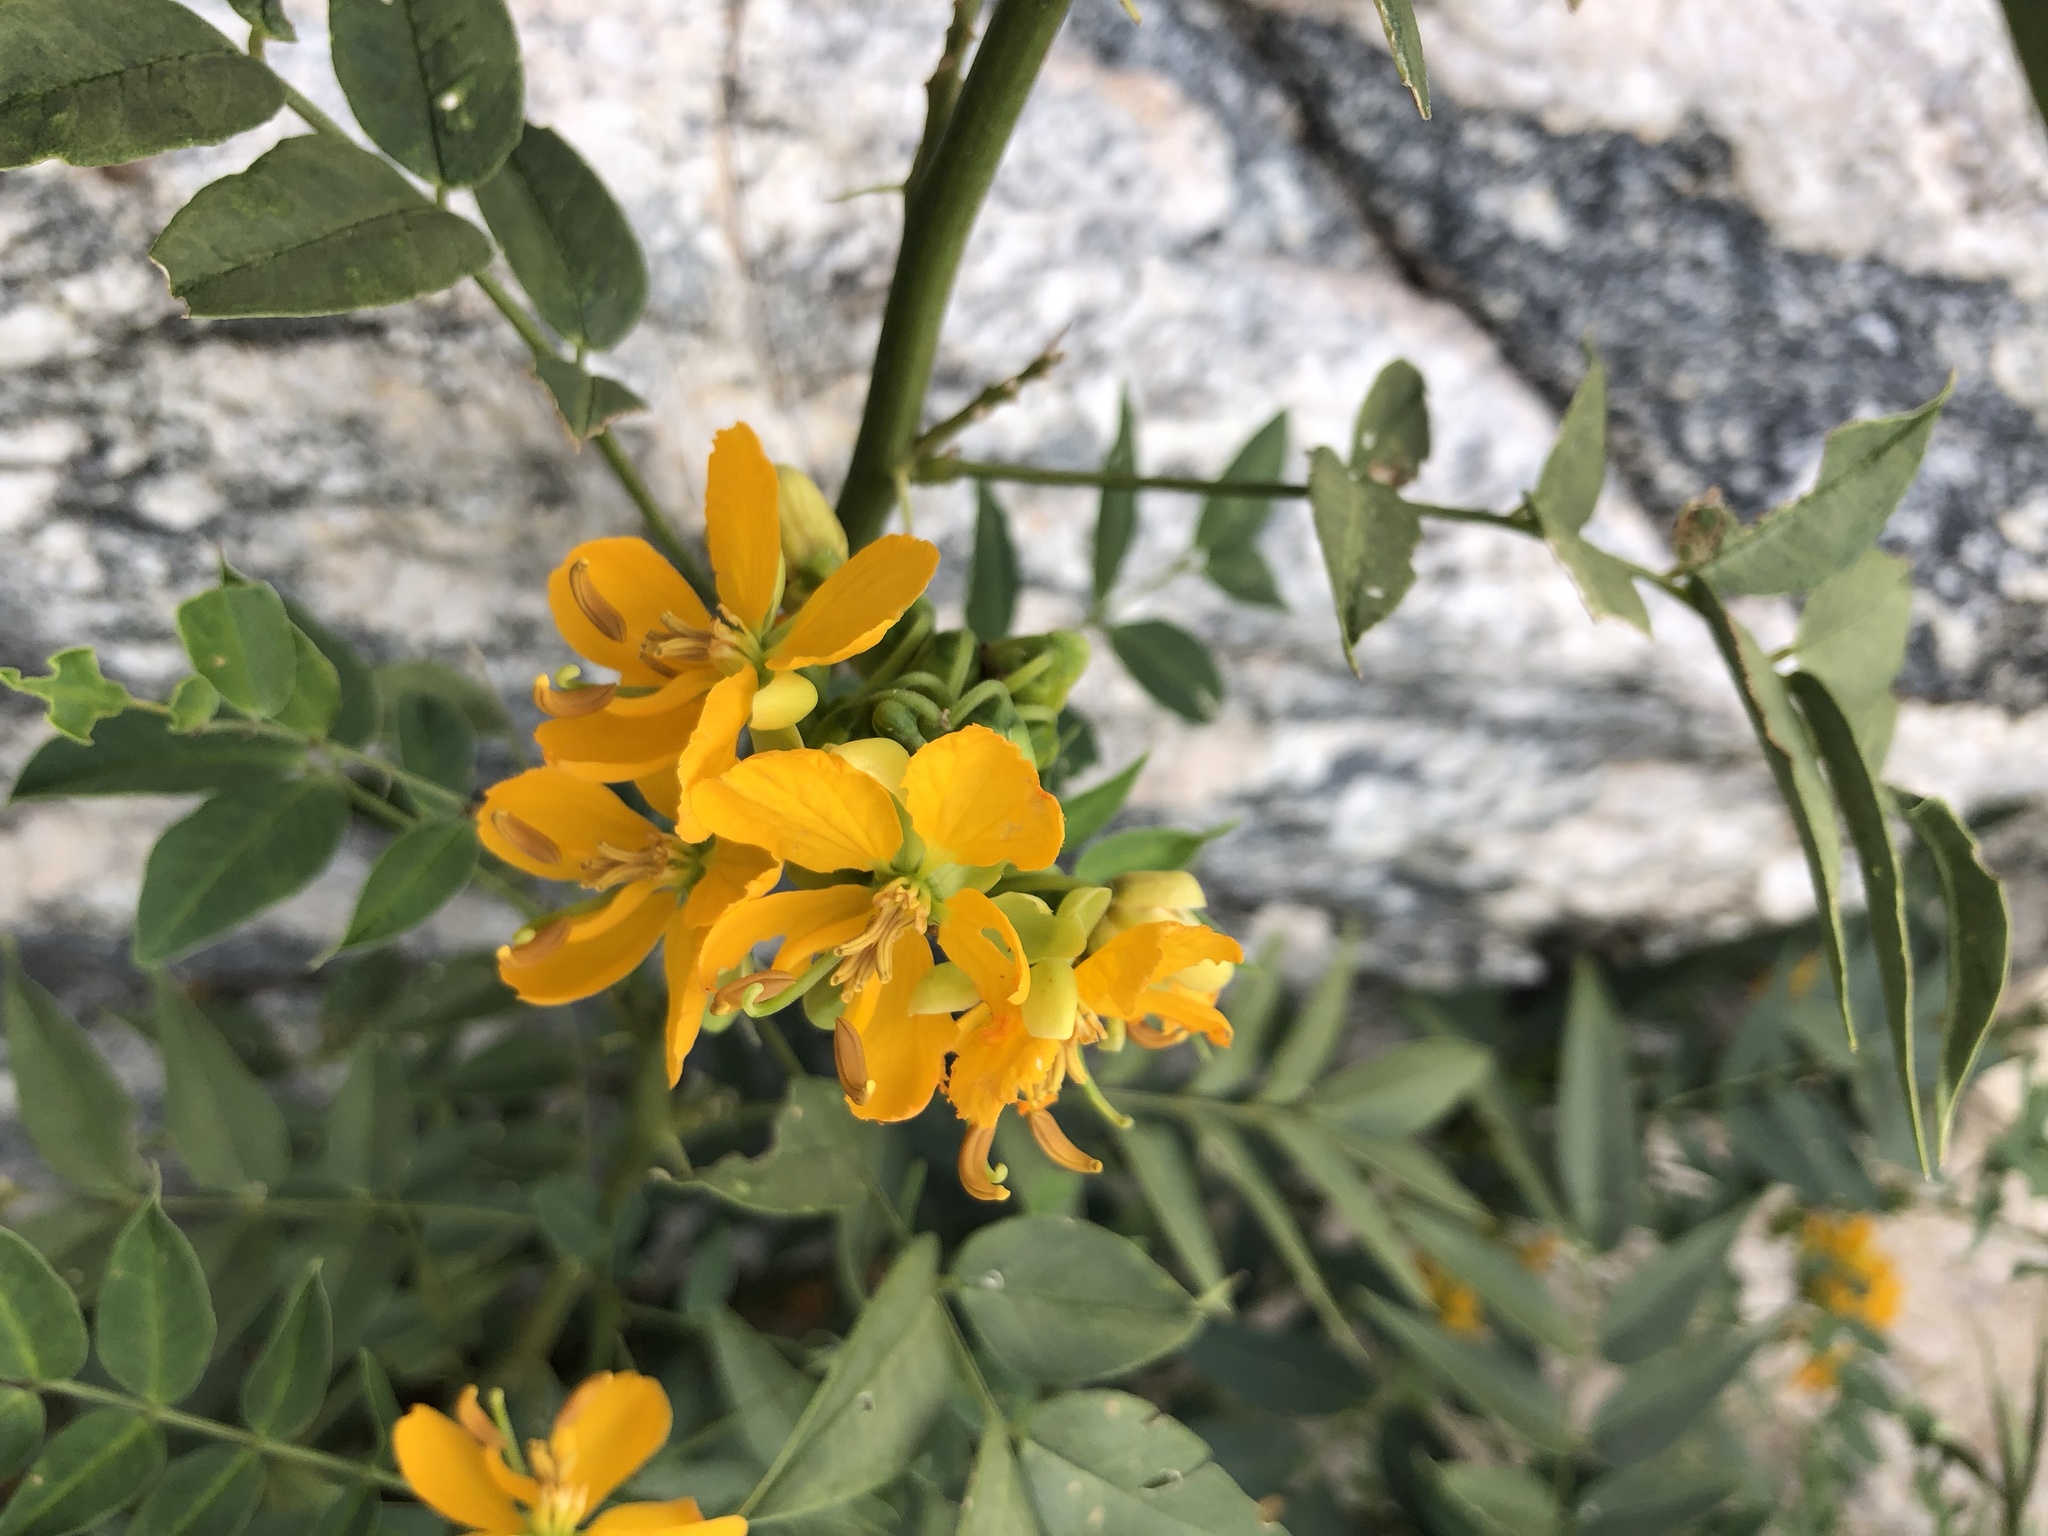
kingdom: Plantae
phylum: Tracheophyta
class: Magnoliopsida
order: Fabales
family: Fabaceae
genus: Senna
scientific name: Senna hirsuta
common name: Woolly senna
